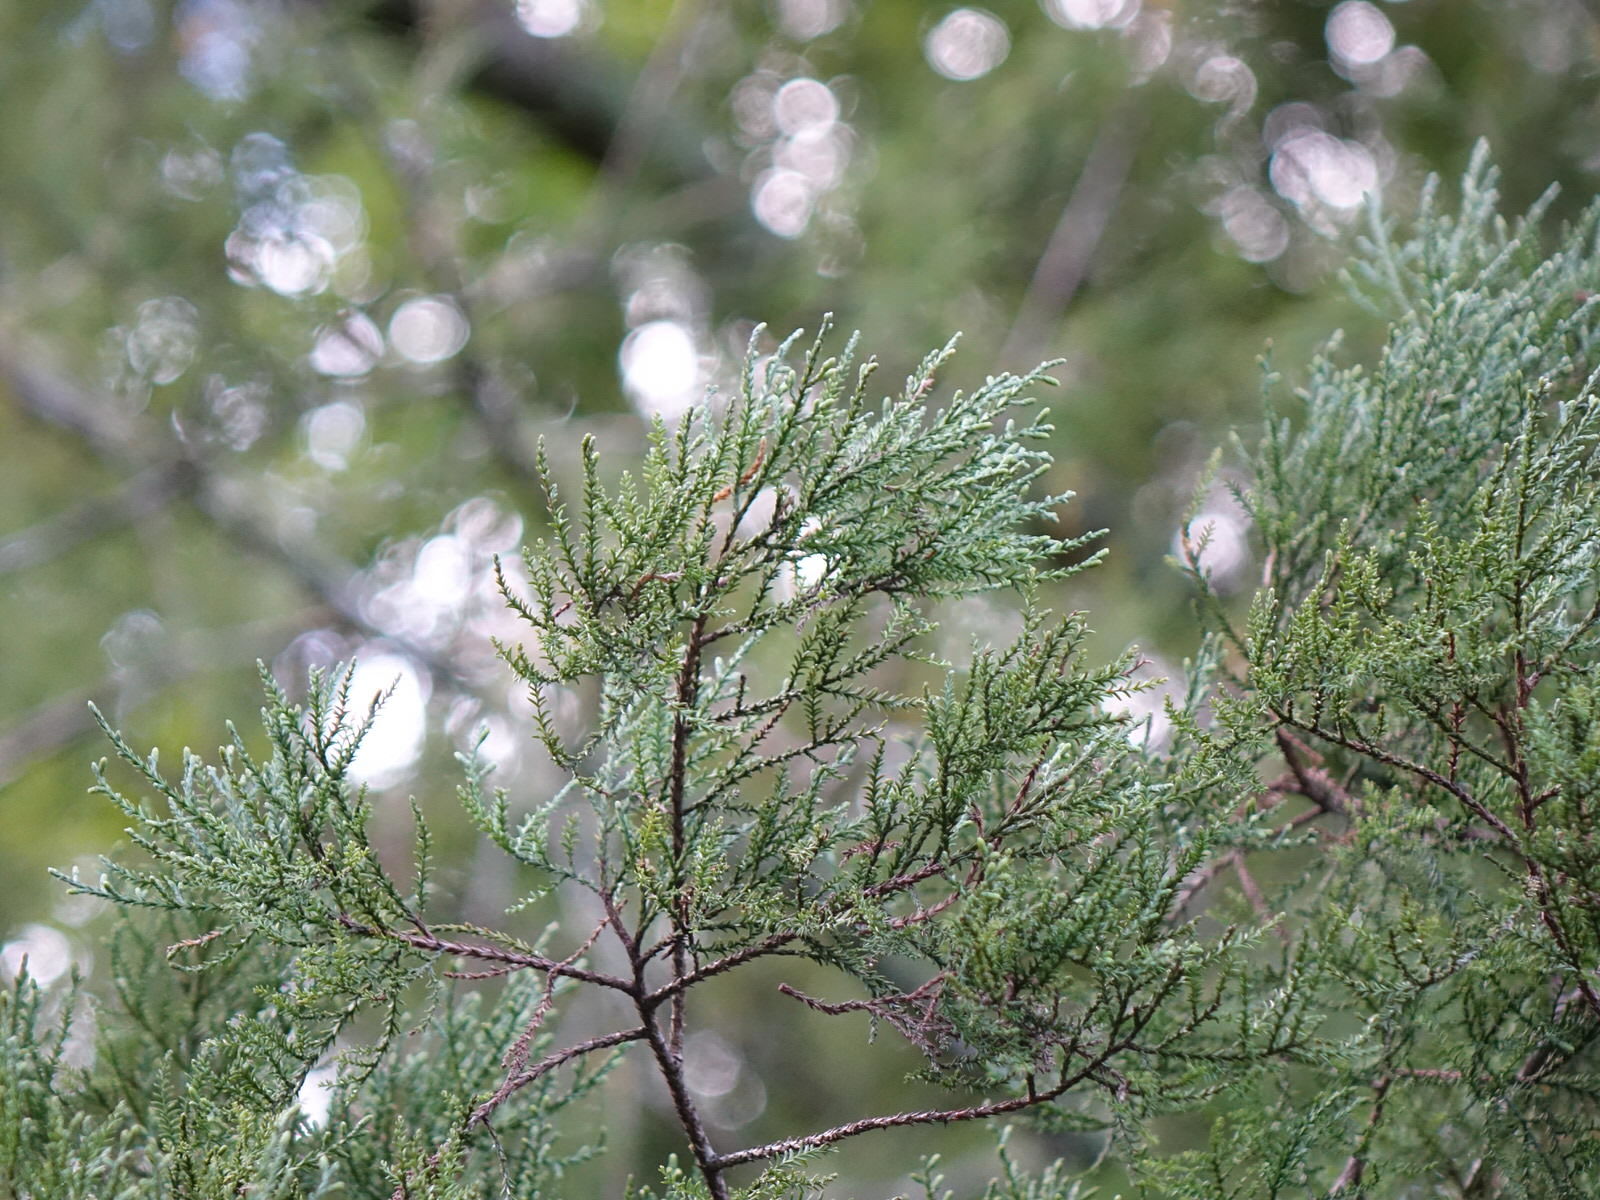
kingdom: Plantae
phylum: Tracheophyta
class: Pinopsida
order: Pinales
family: Podocarpaceae
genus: Dacrycarpus
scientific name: Dacrycarpus dacrydioides
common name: White pine
